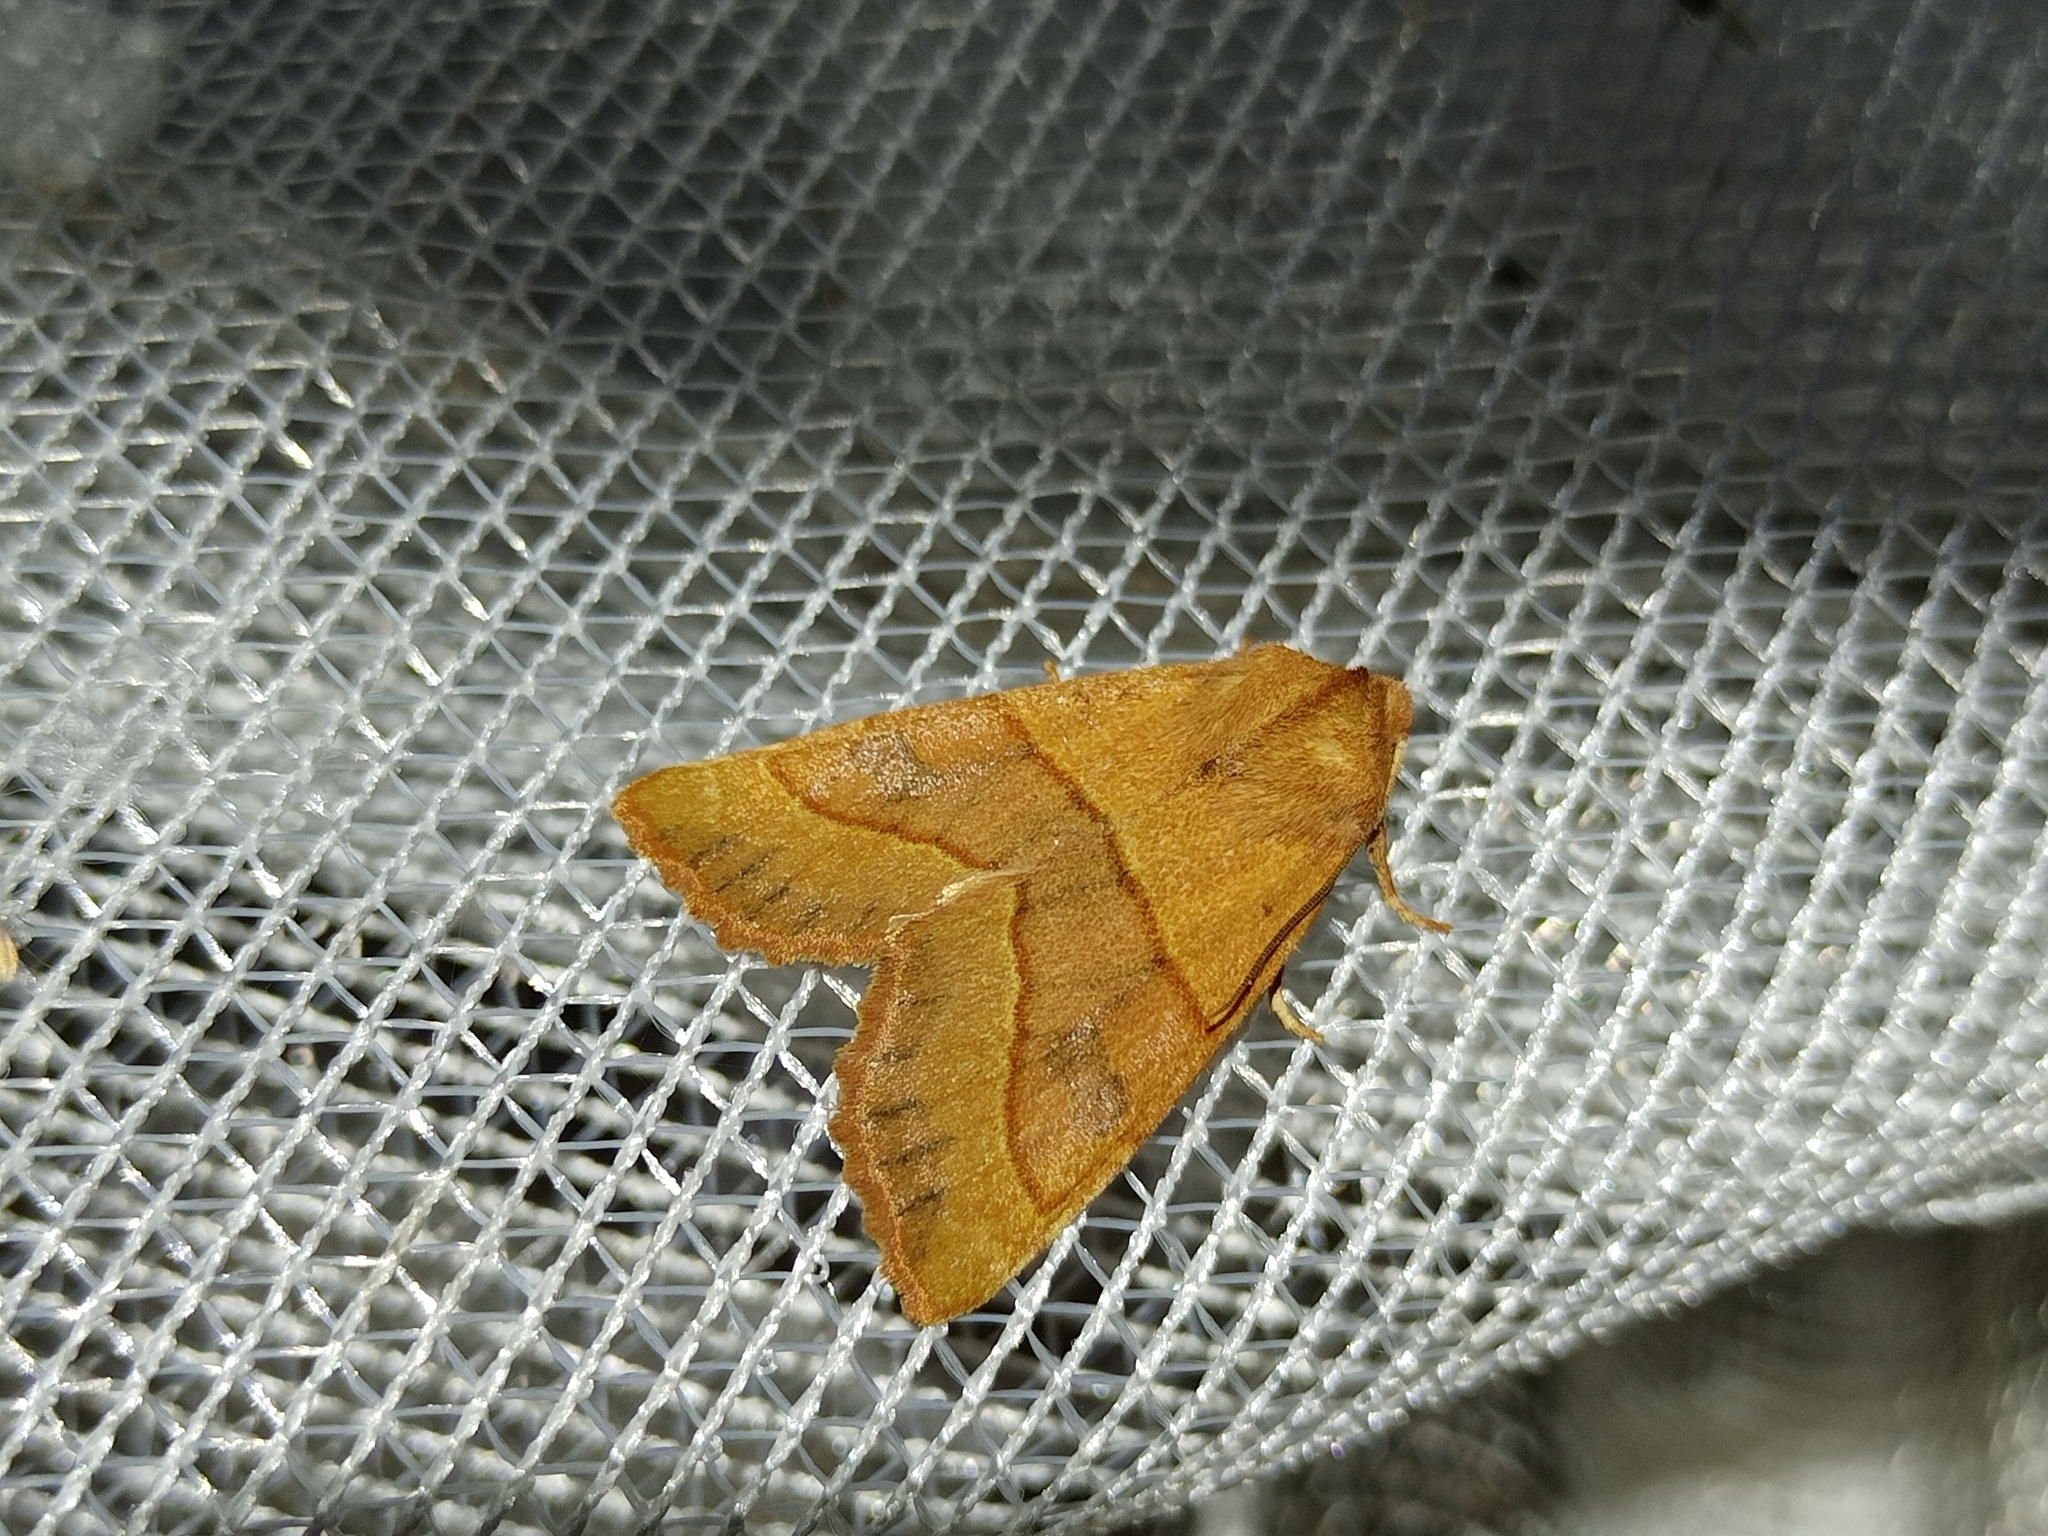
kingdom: Animalia
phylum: Arthropoda
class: Insecta
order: Lepidoptera
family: Noctuidae
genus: Atethmia
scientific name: Atethmia centrago
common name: Centre-barred sallow
